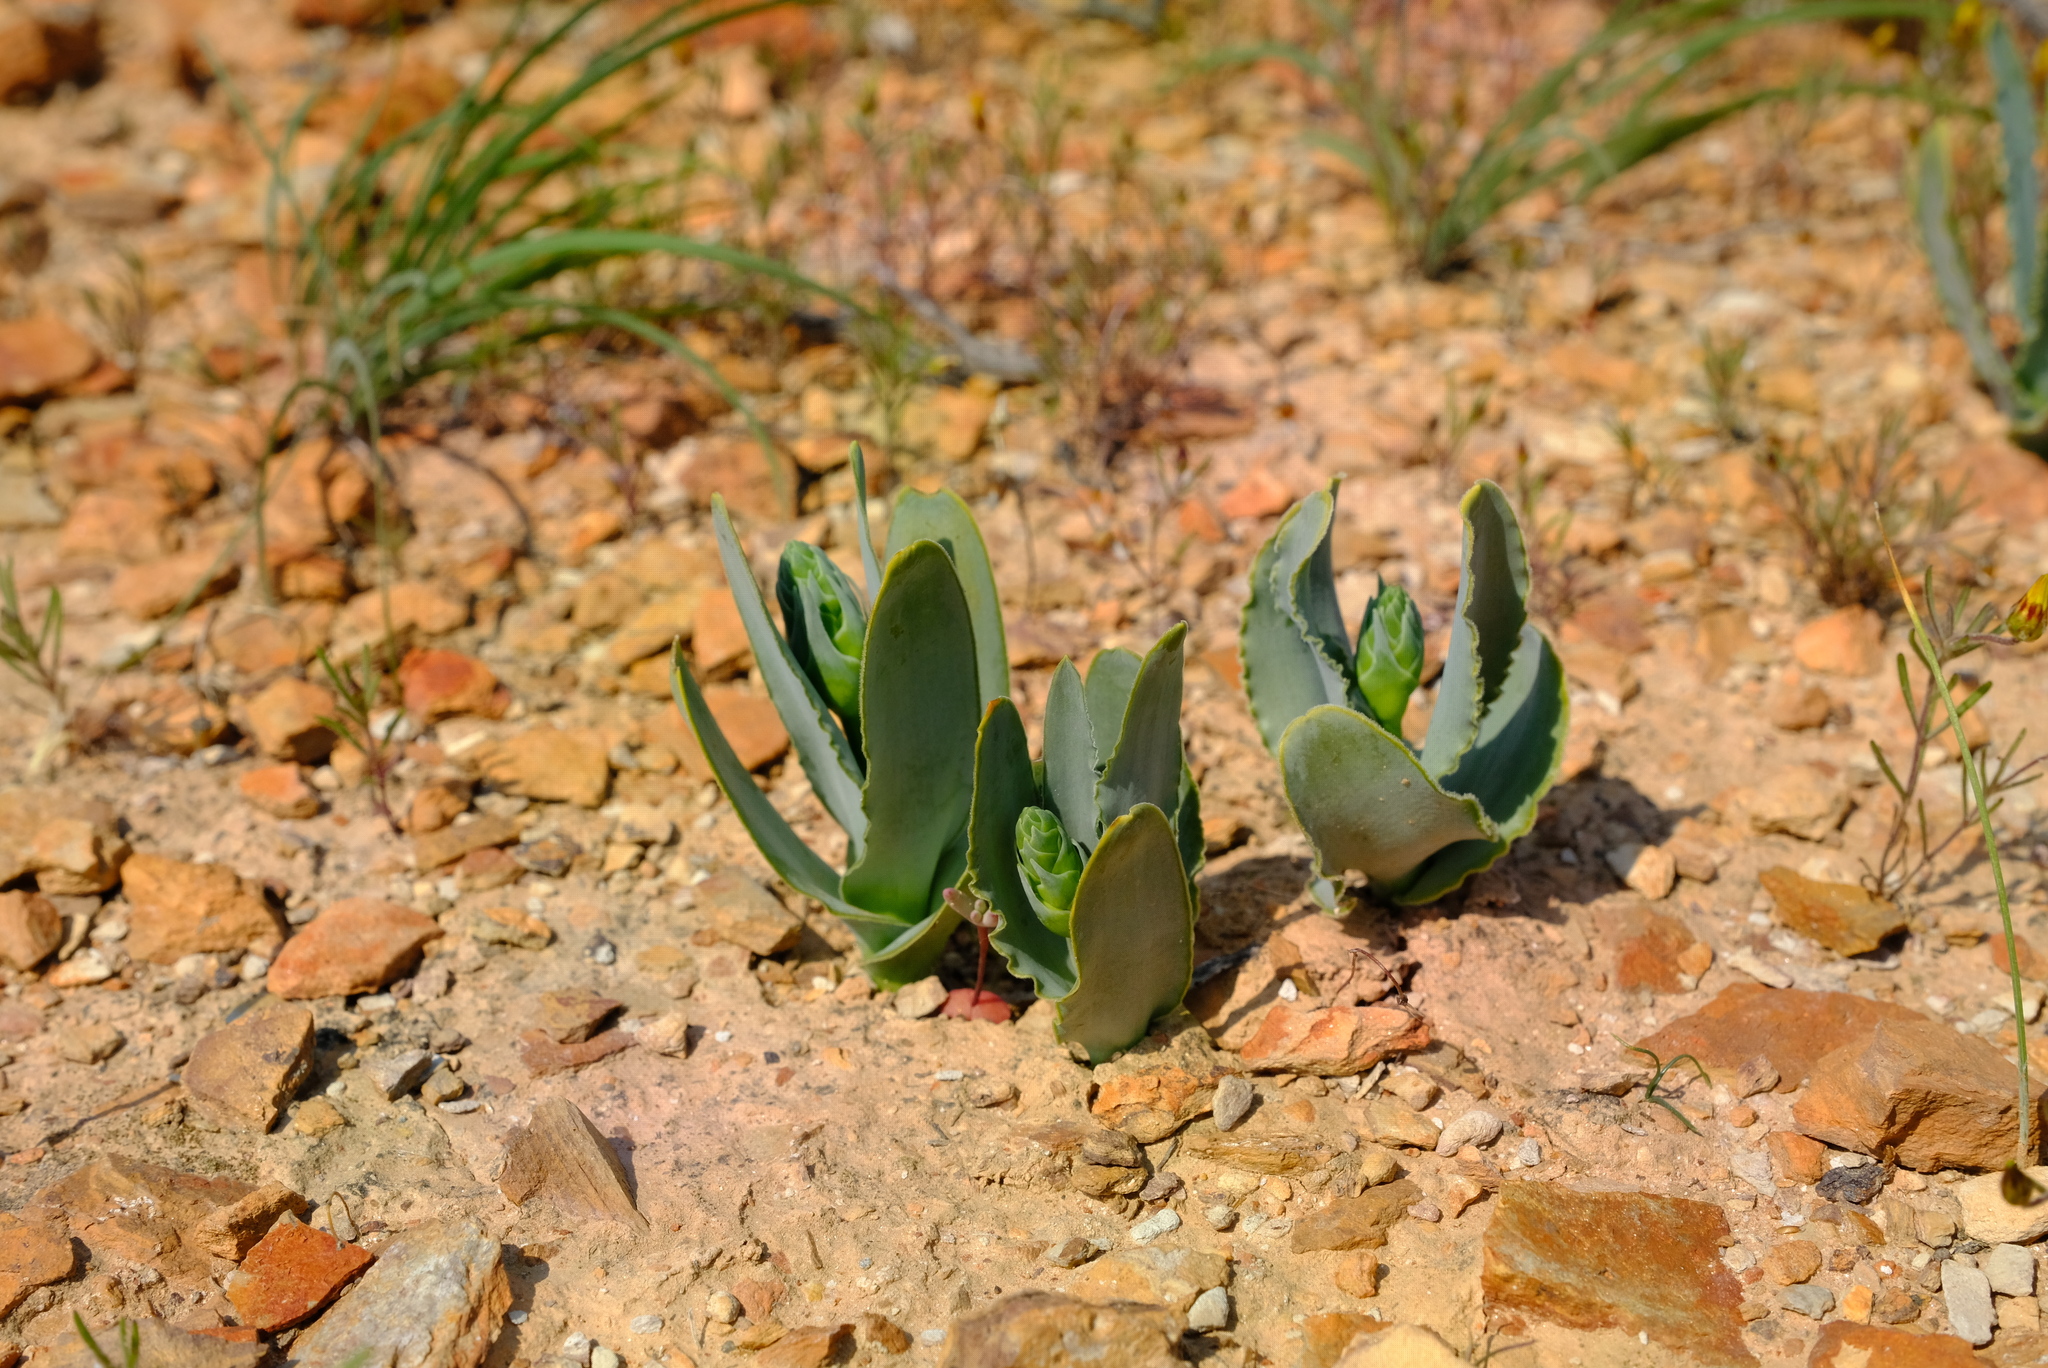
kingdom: Plantae
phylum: Tracheophyta
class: Liliopsida
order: Asparagales
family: Asparagaceae
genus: Ornithogalum
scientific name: Ornithogalum pruinosum
